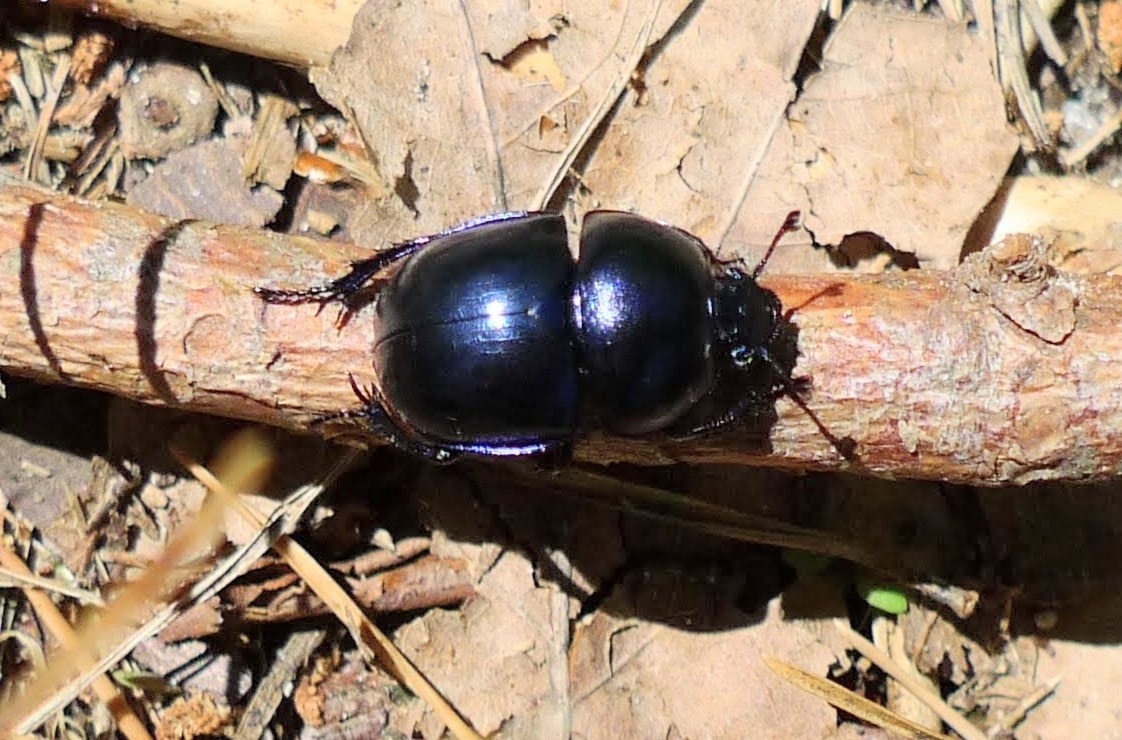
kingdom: Animalia
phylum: Arthropoda
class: Insecta
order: Coleoptera
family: Geotrupidae
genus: Trypocopris
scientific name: Trypocopris vernalis
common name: Spring dumbledor
